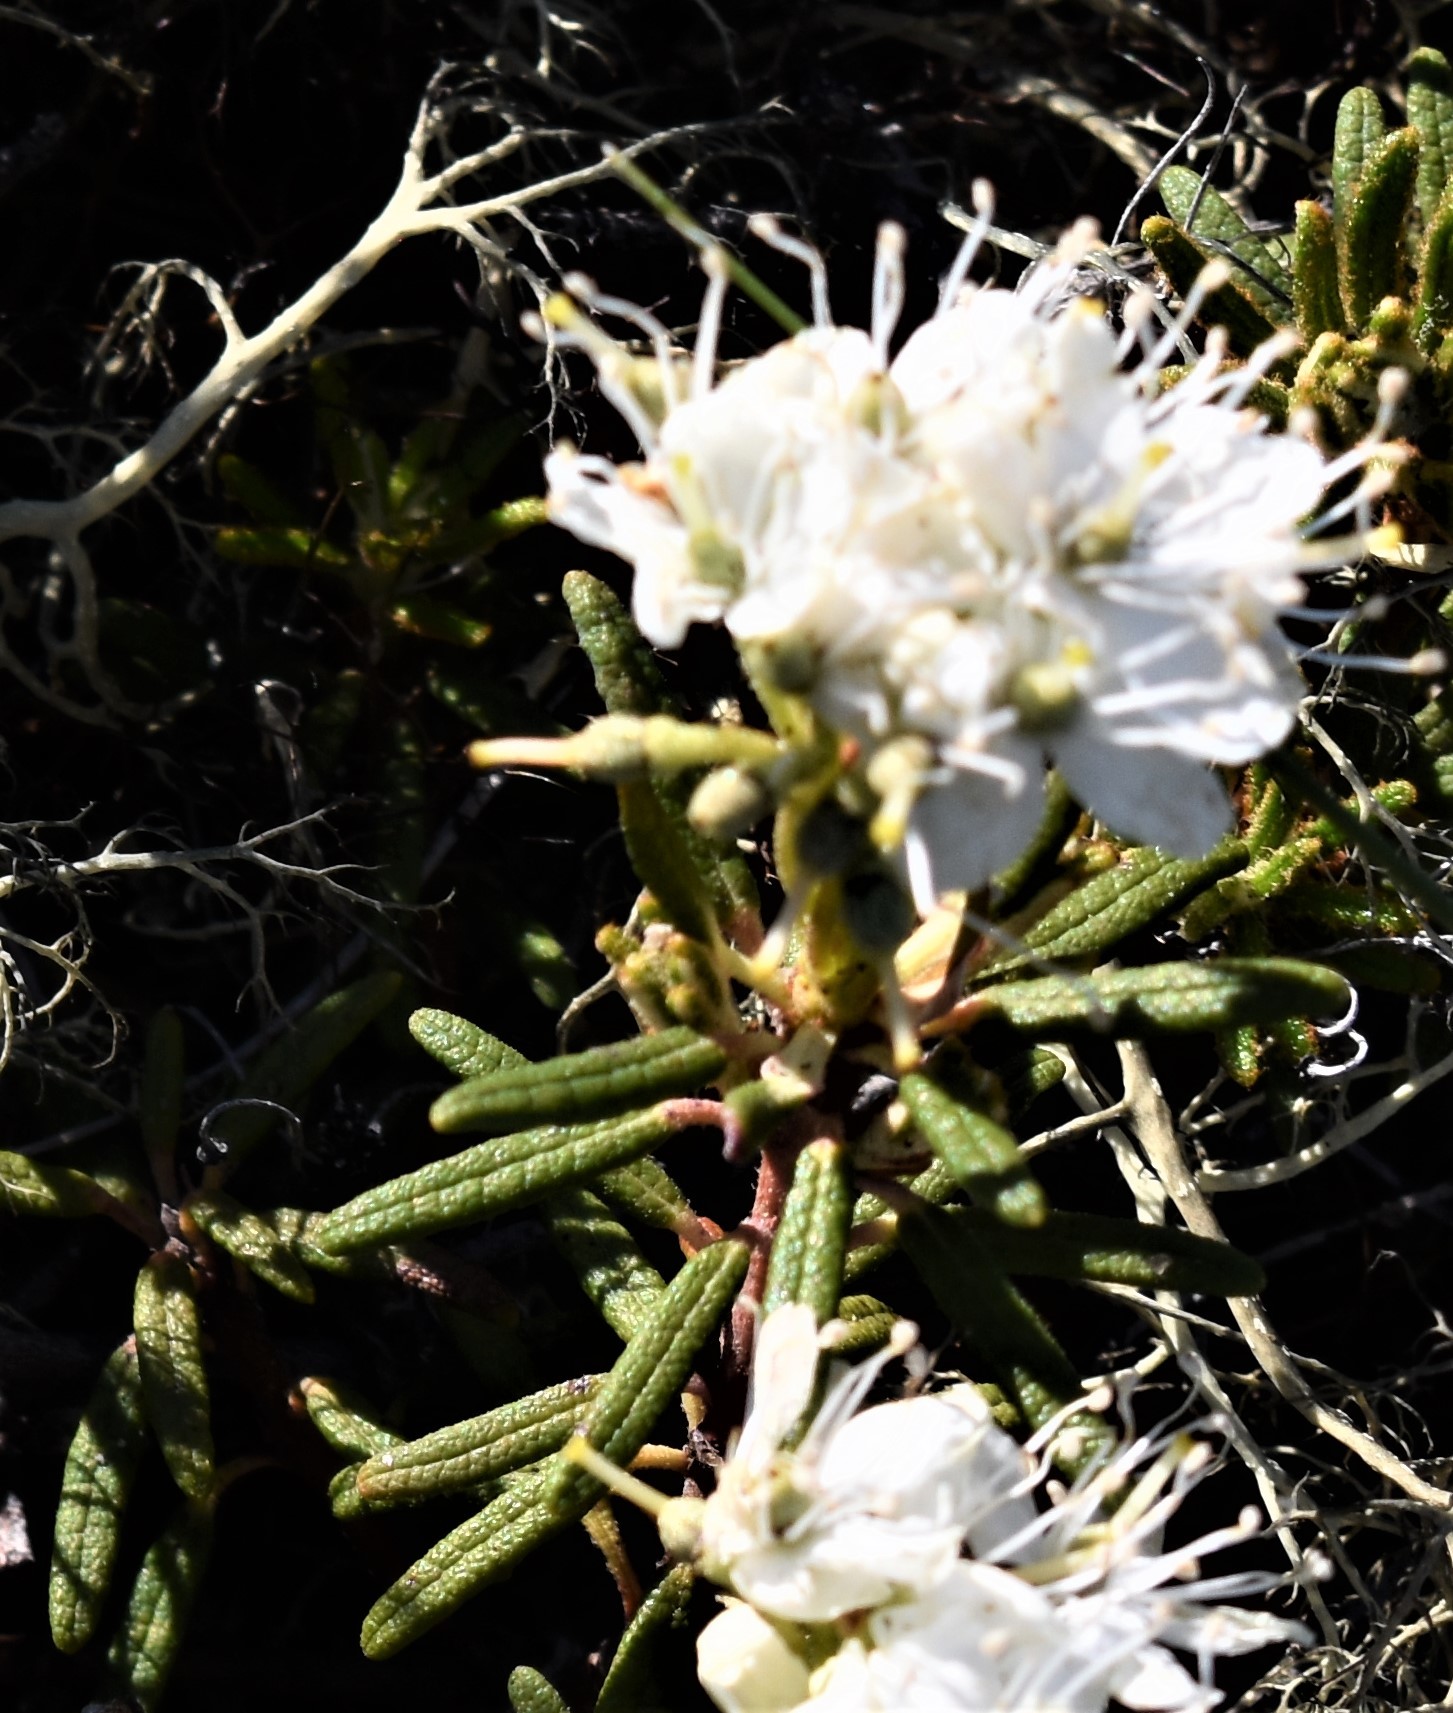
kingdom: Plantae
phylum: Tracheophyta
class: Magnoliopsida
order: Ericales
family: Ericaceae
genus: Rhododendron
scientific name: Rhododendron tomentosum
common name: Marsh labrador tea
